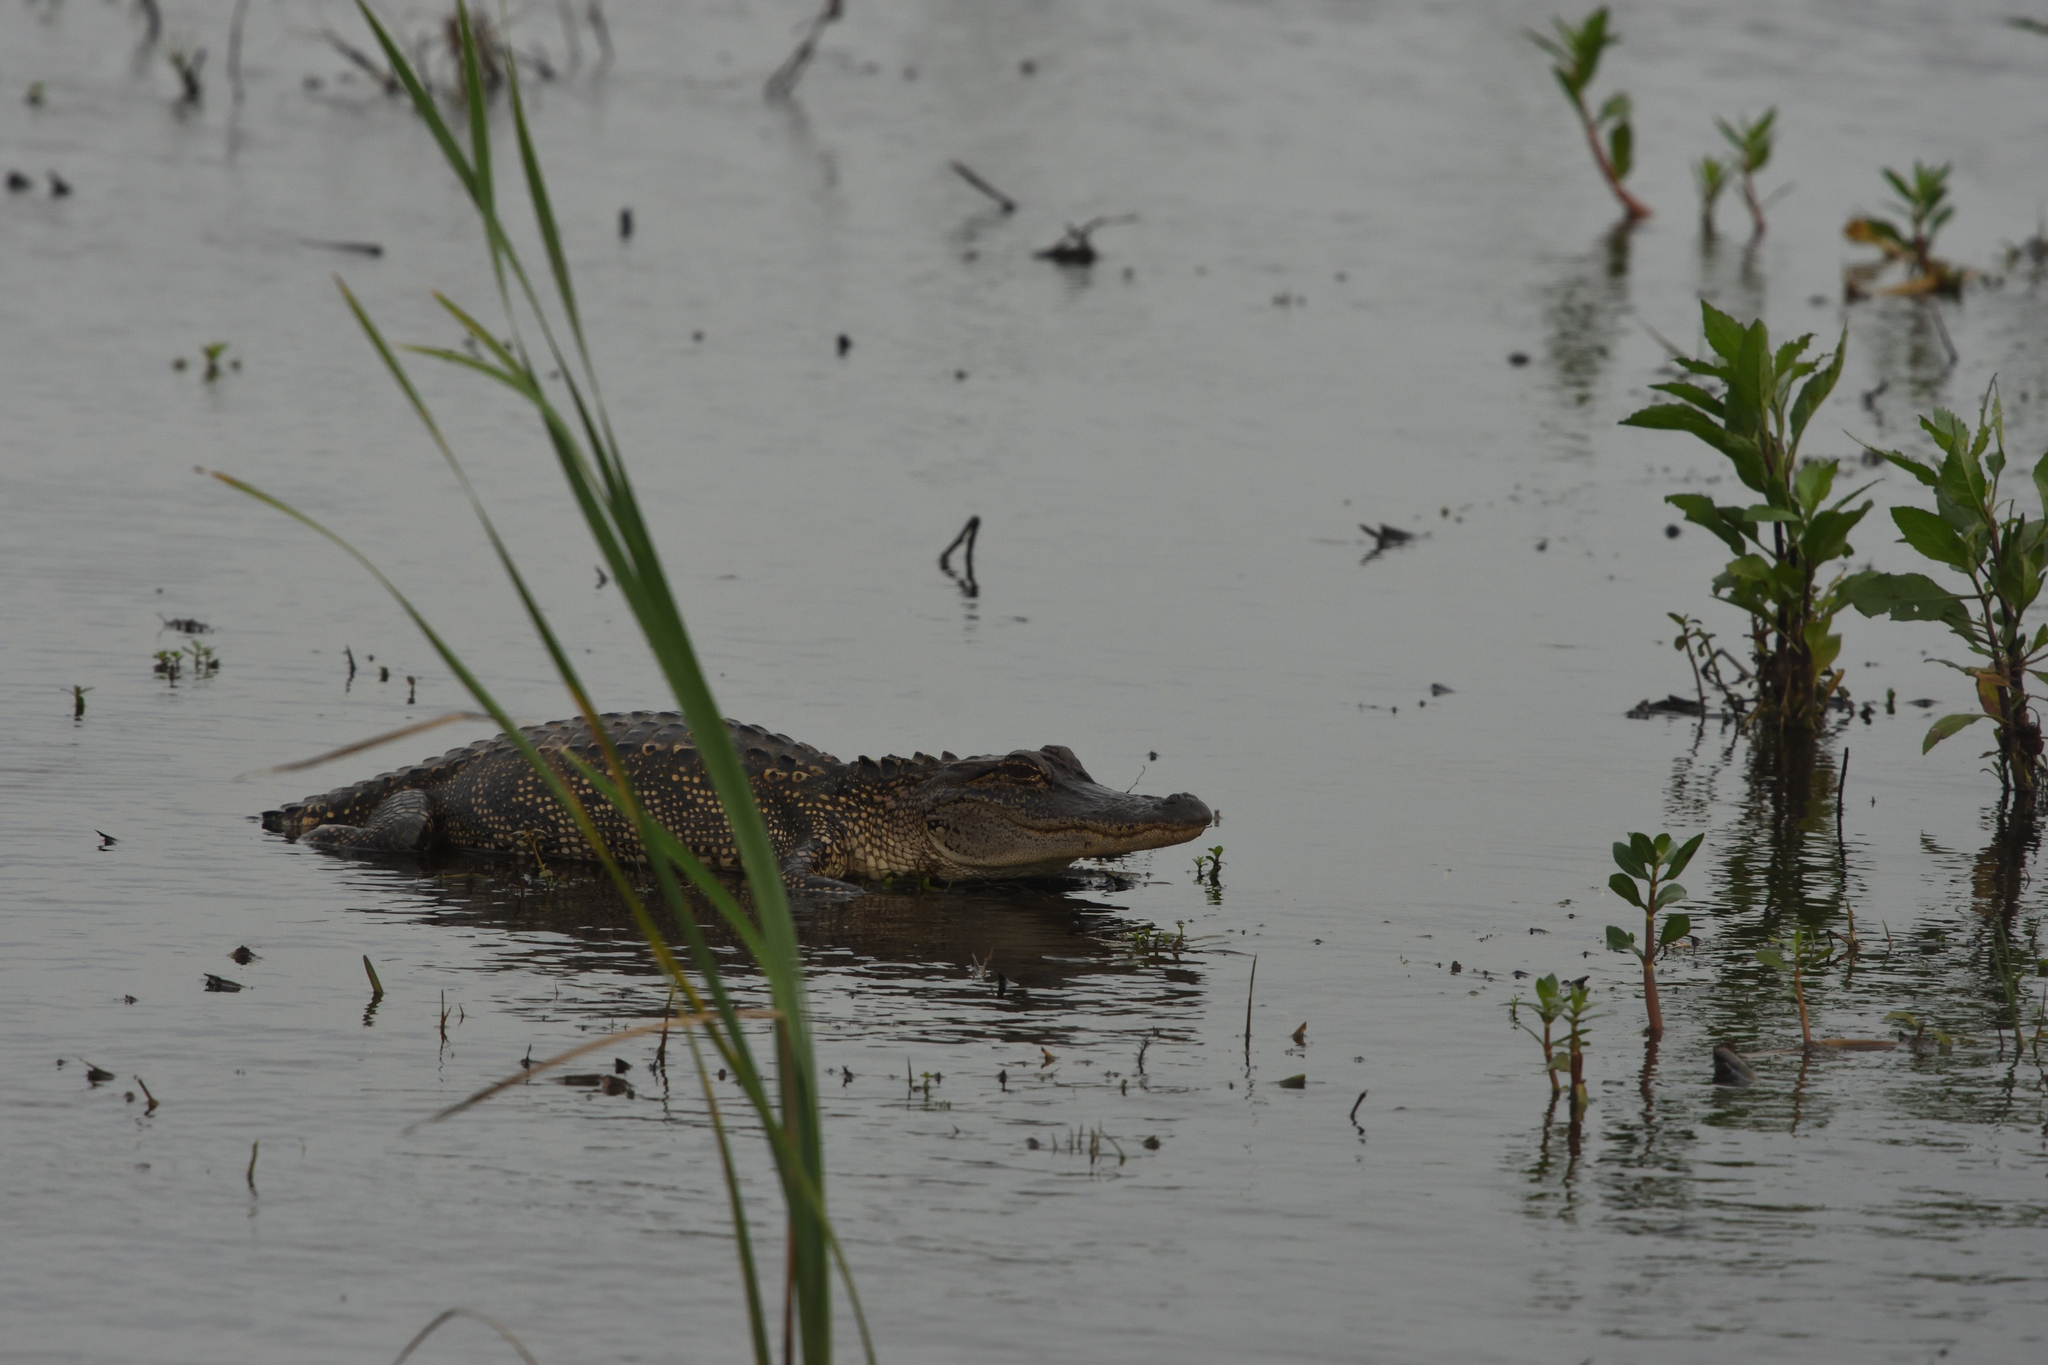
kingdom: Animalia
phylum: Chordata
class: Crocodylia
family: Alligatoridae
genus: Alligator
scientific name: Alligator mississippiensis
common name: American alligator
